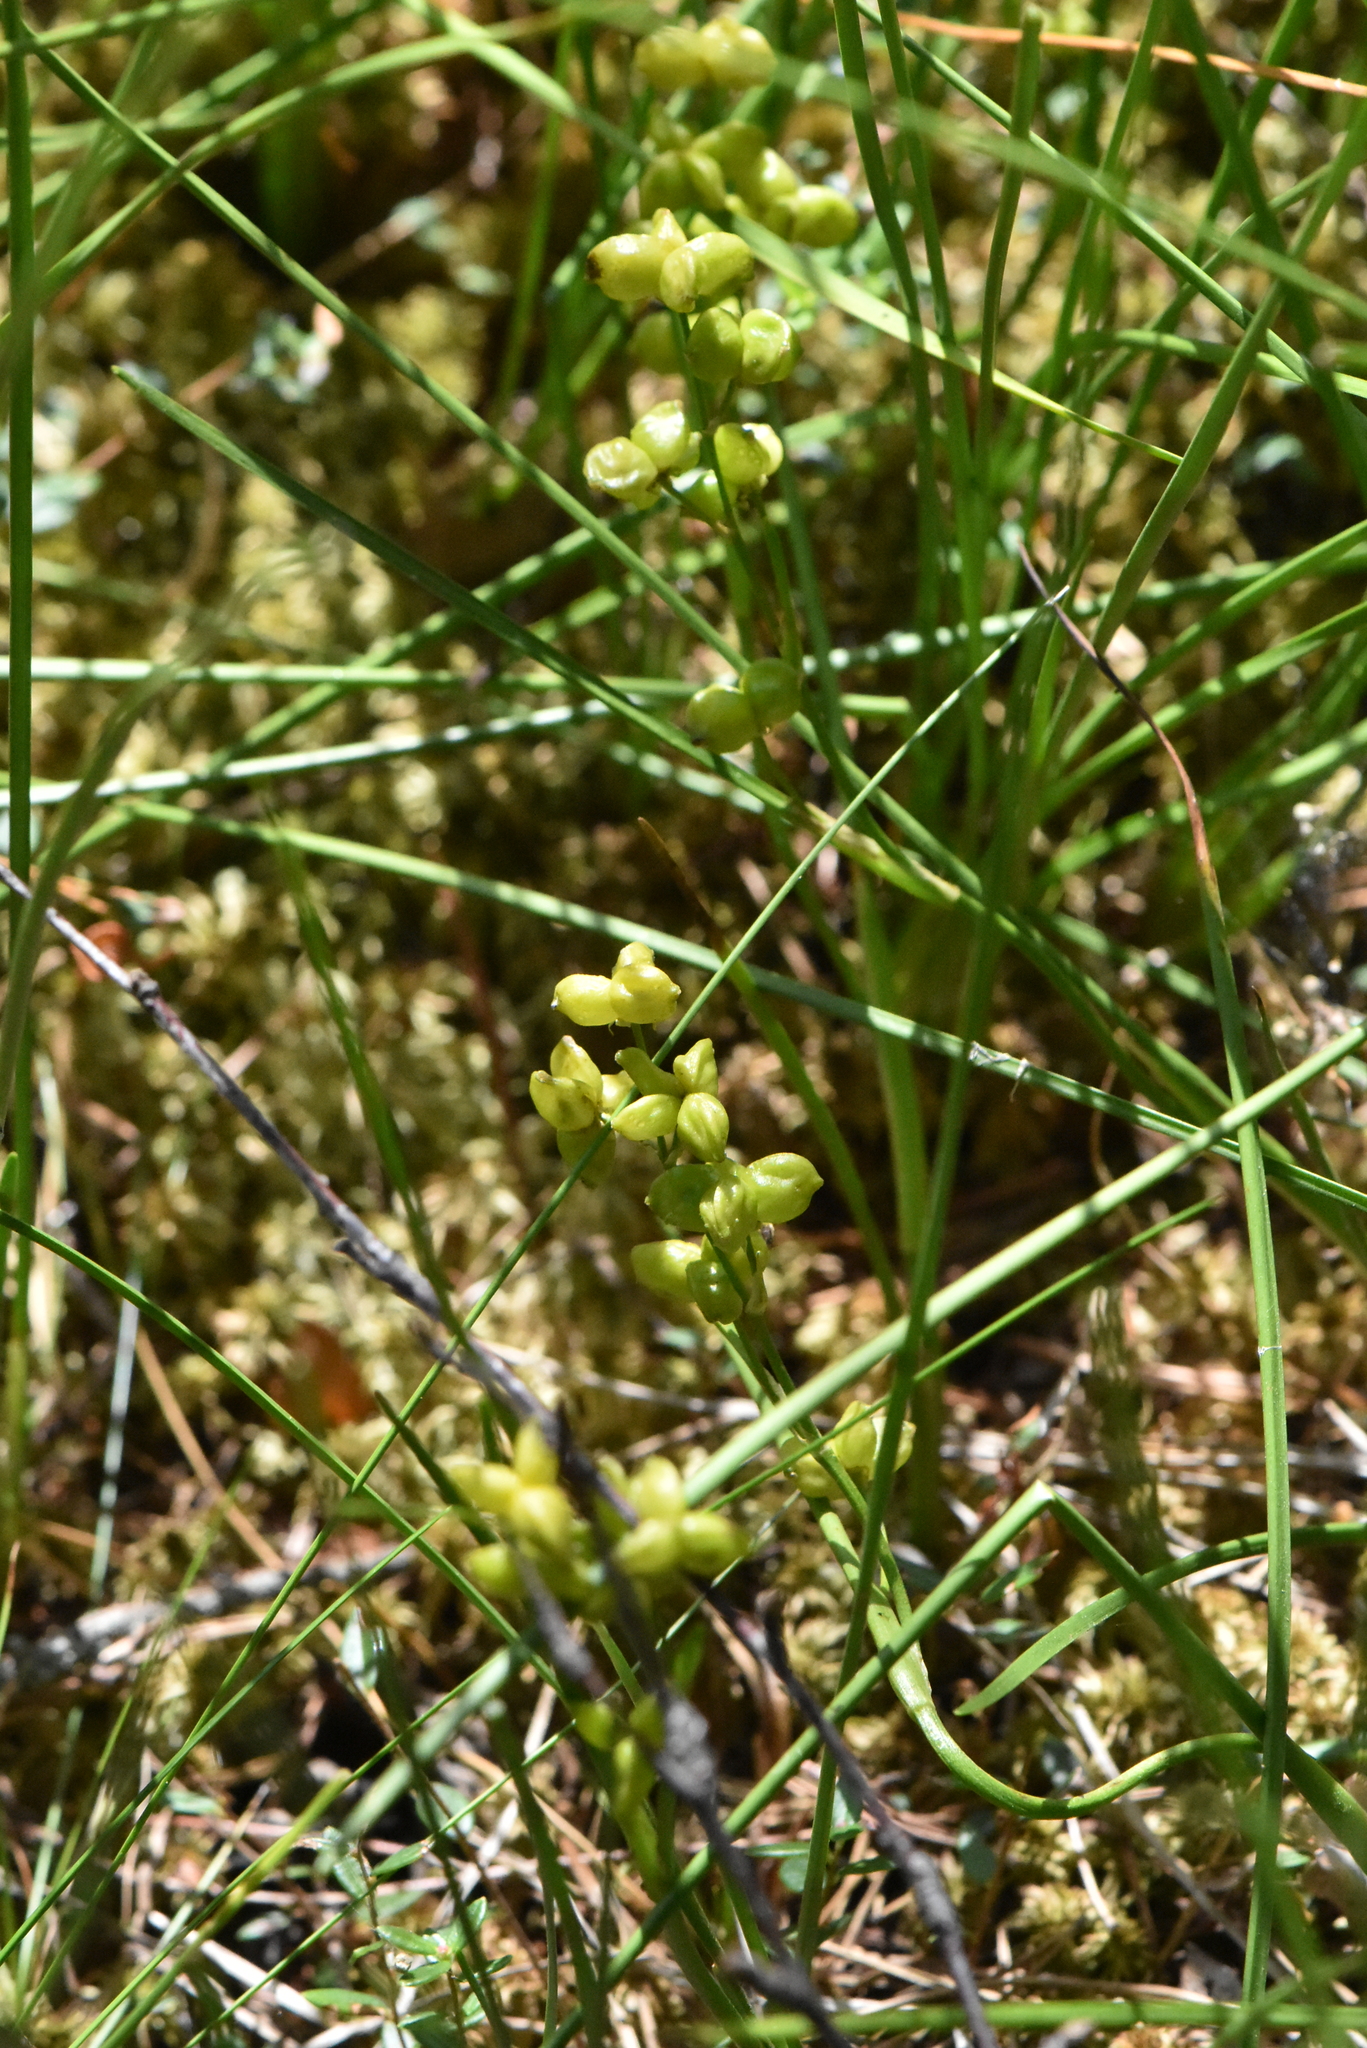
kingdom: Plantae
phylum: Tracheophyta
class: Liliopsida
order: Alismatales
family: Scheuchzeriaceae
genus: Scheuchzeria
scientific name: Scheuchzeria palustris
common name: Rannoch-rush
